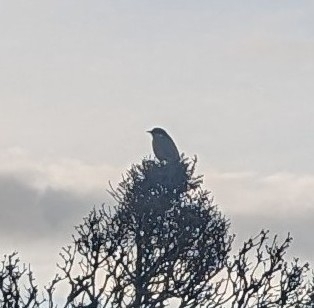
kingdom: Animalia
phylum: Chordata
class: Aves
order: Passeriformes
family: Meliphagidae
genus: Gavicalis
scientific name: Gavicalis virescens
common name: Singing honeyeater
